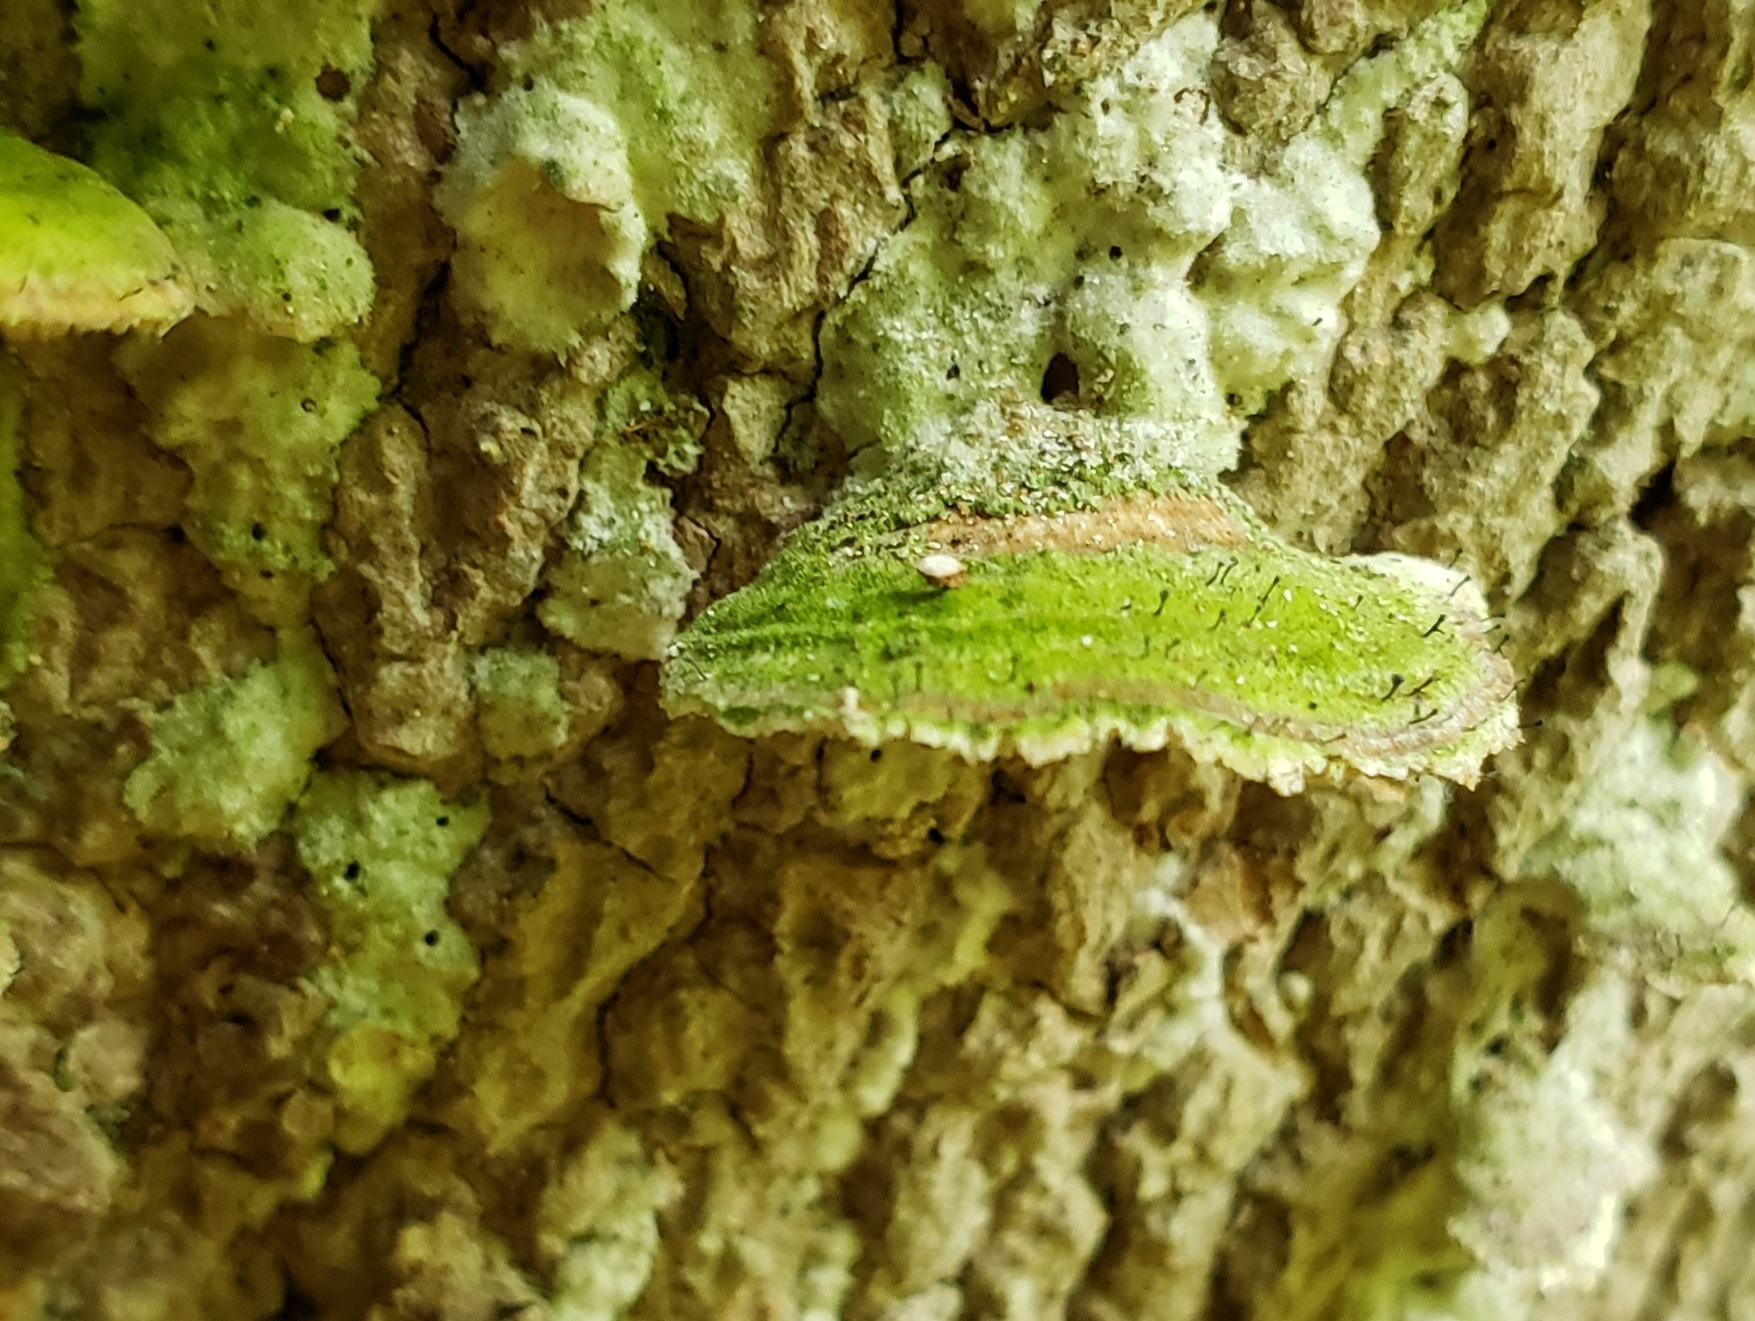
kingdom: Fungi
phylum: Ascomycota
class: Eurotiomycetes
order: Mycocaliciales
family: Mycocaliciaceae
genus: Phaeocalicium
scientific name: Phaeocalicium polyporaeum
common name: Fairy pins
